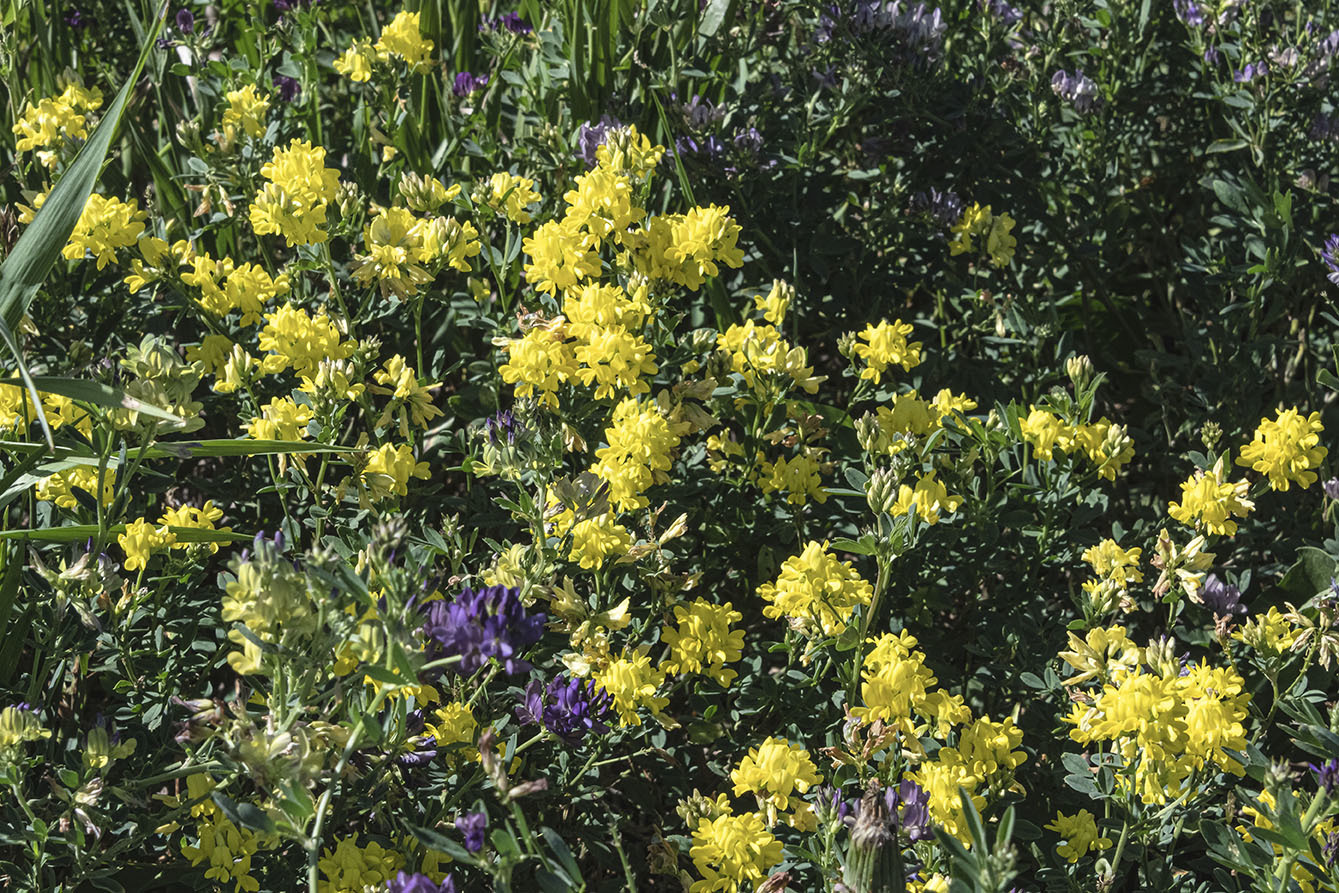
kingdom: Plantae
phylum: Tracheophyta
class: Magnoliopsida
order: Fabales
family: Fabaceae
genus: Medicago
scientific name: Medicago falcata
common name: Sickle medick
